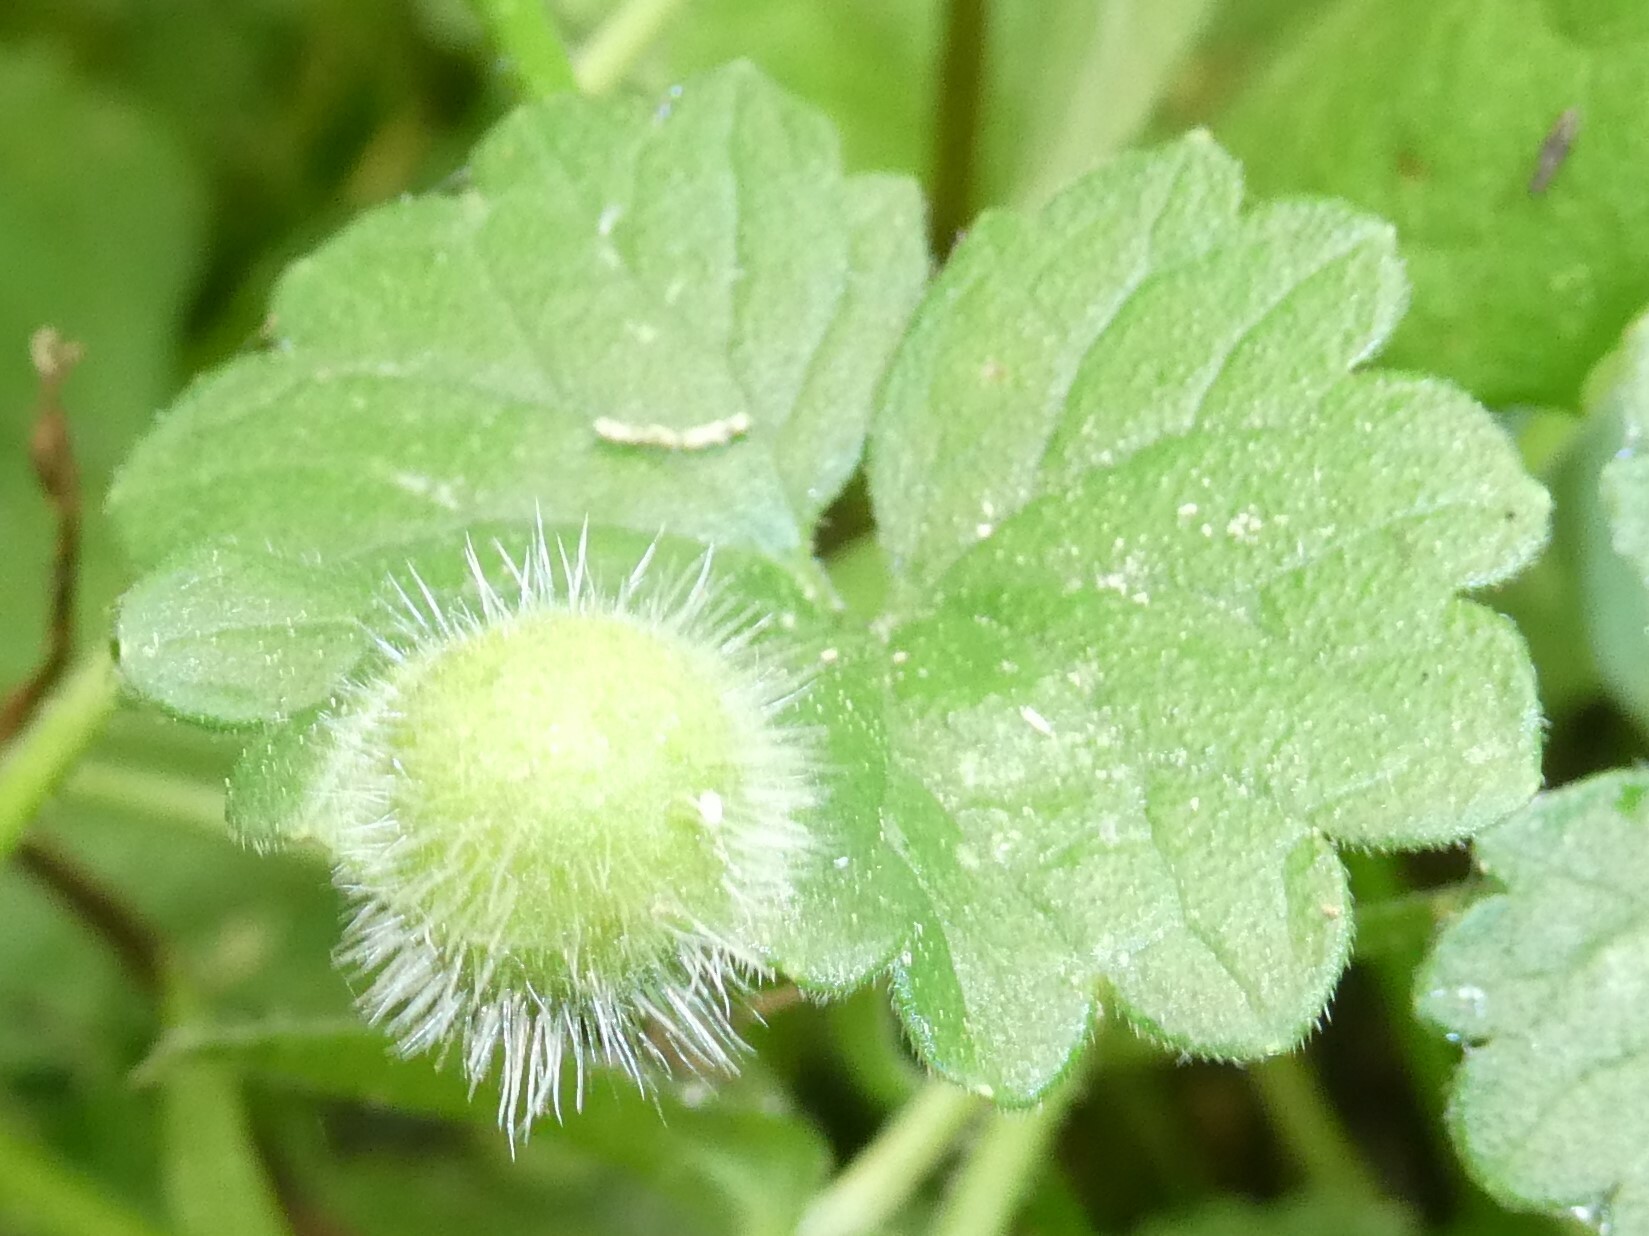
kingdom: Animalia
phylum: Arthropoda
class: Insecta
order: Hymenoptera
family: Cynipidae
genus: Liposthenes
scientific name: Liposthenes glechomae
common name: Gall wasp
